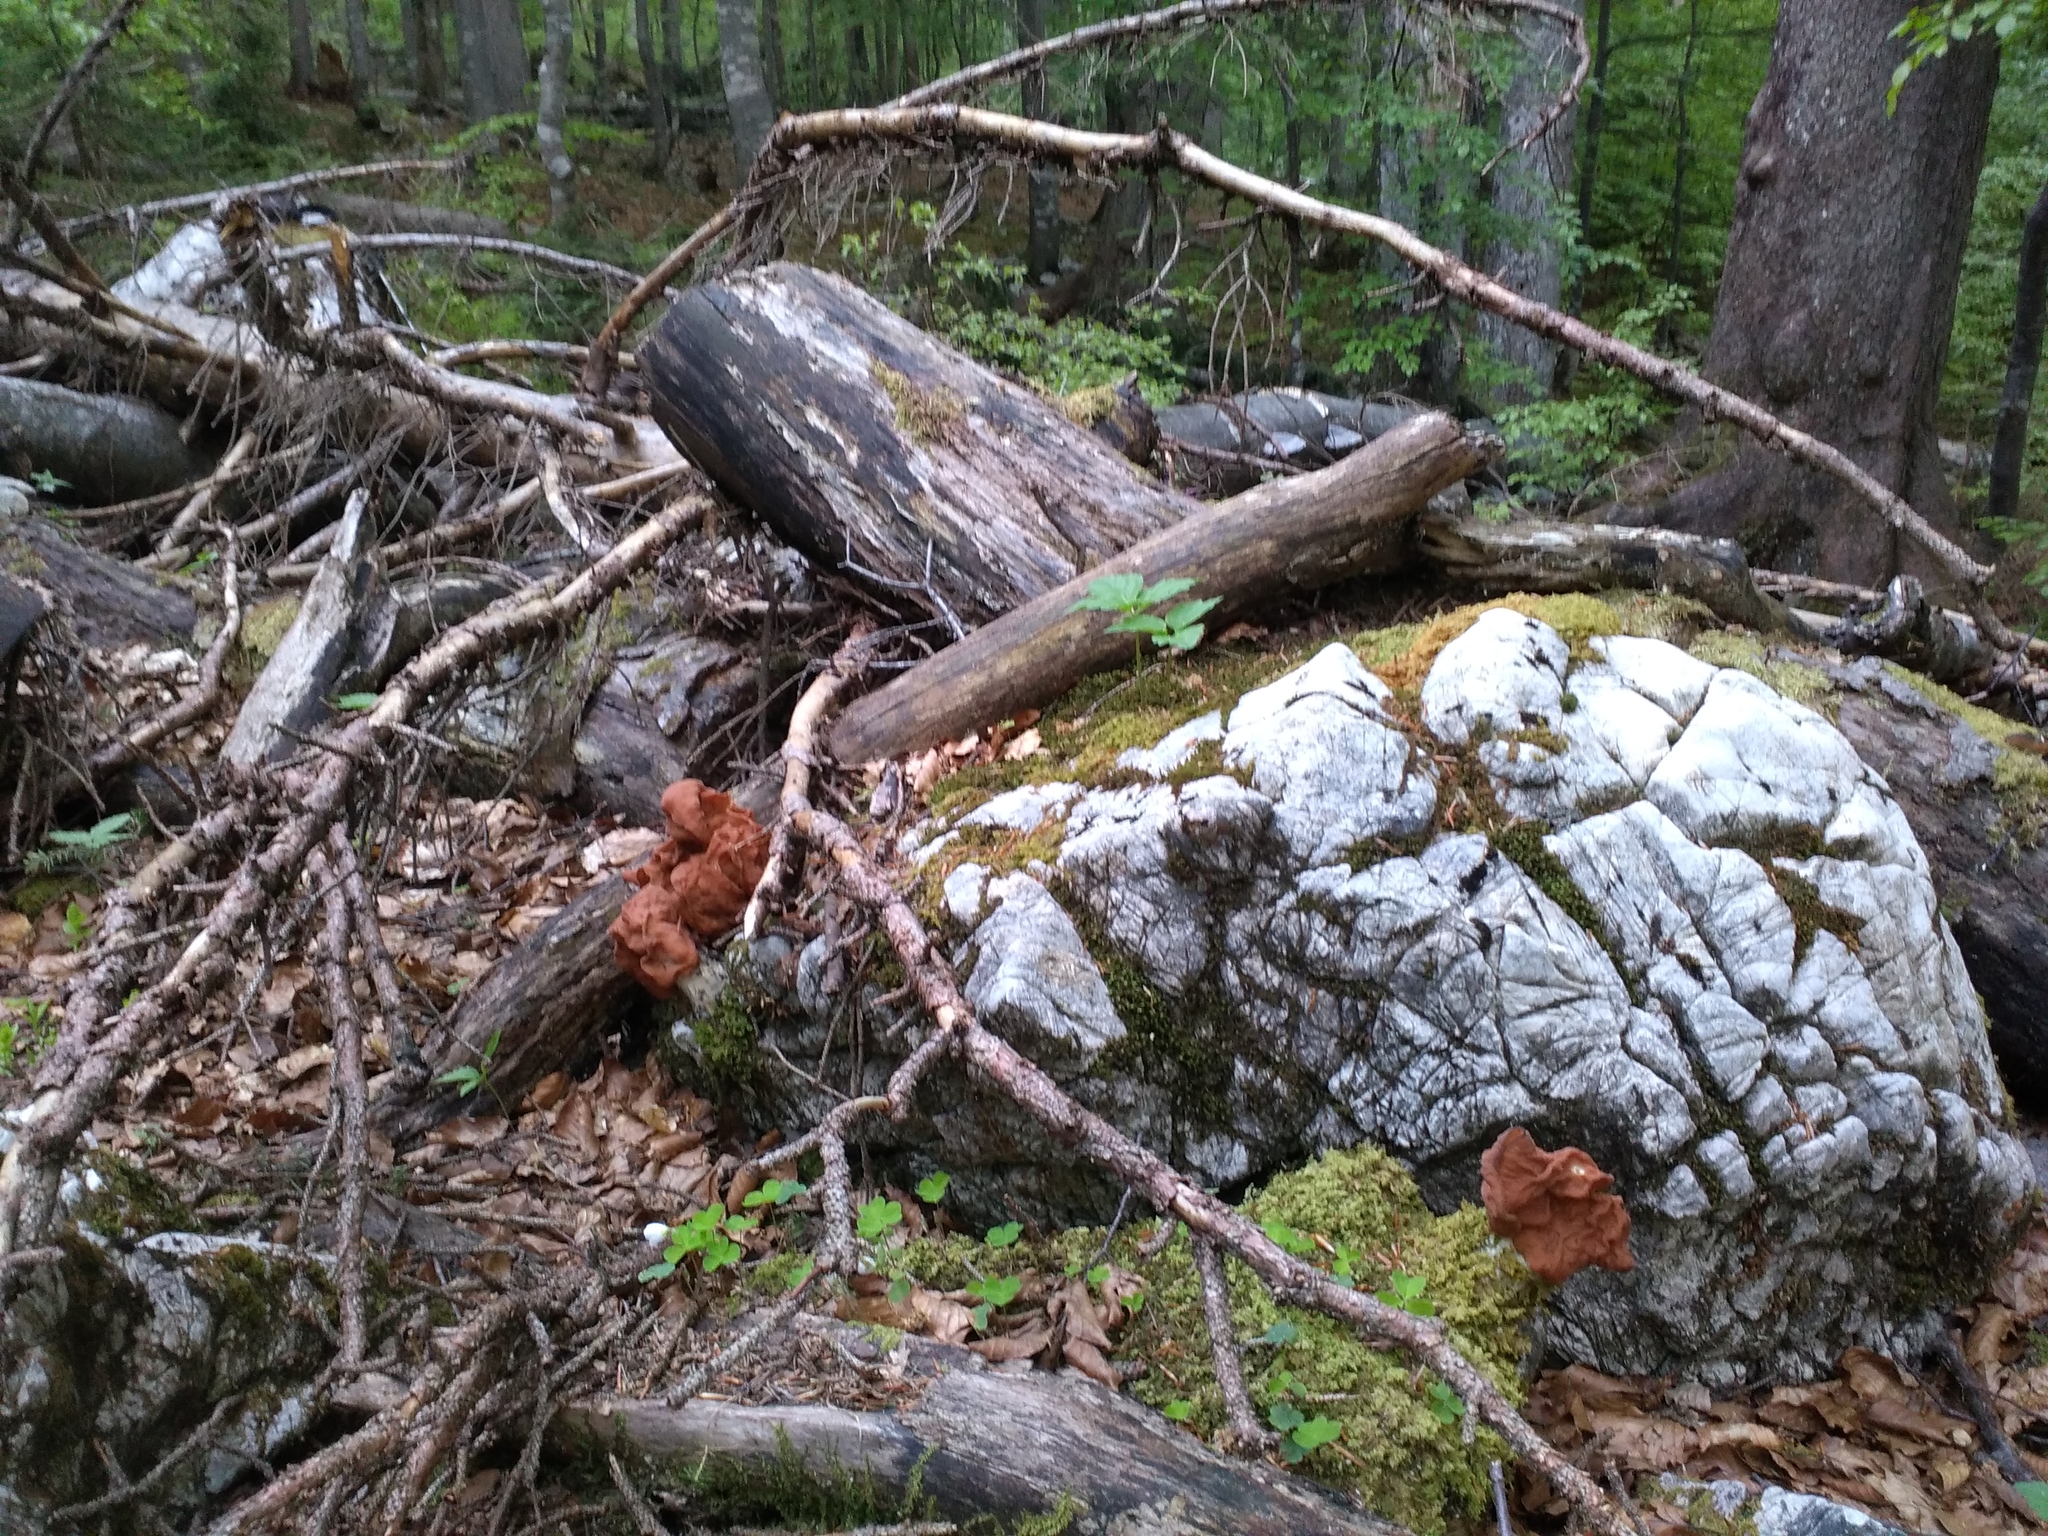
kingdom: Fungi
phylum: Ascomycota
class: Pezizomycetes
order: Pezizales
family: Discinaceae
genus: Gyromitra
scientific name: Gyromitra slonevskii
